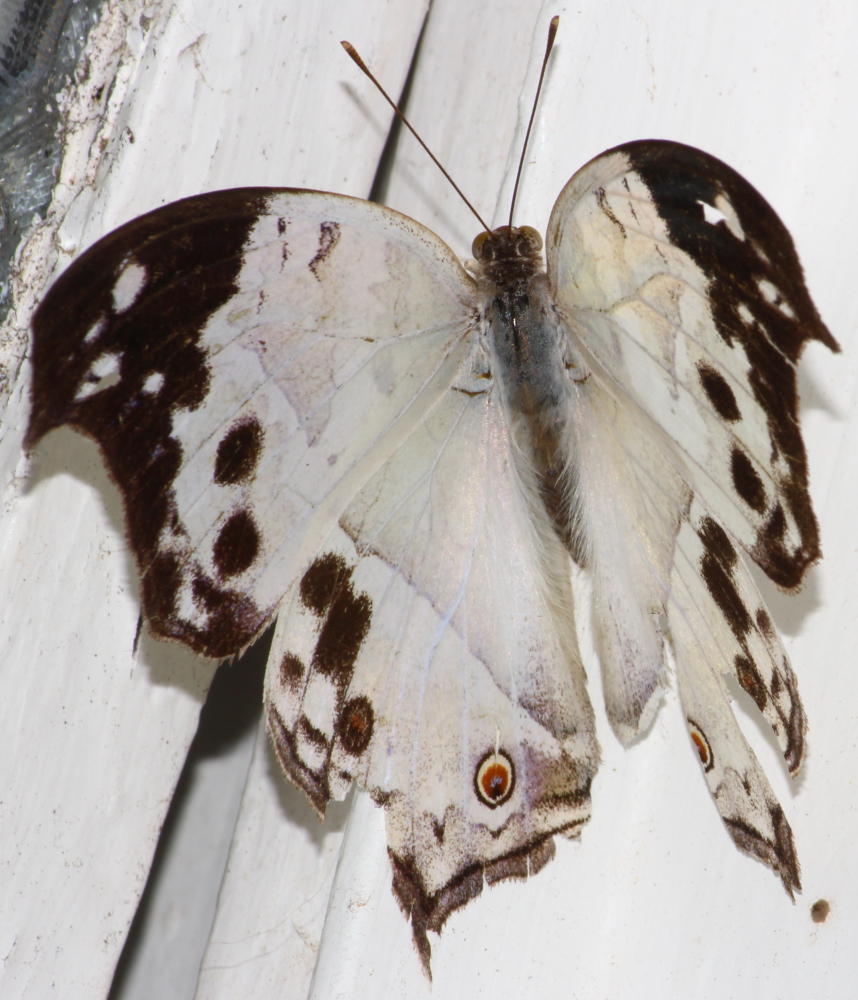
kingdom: Animalia
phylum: Arthropoda
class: Insecta
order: Lepidoptera
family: Nymphalidae
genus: Salamis
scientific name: Salamis
